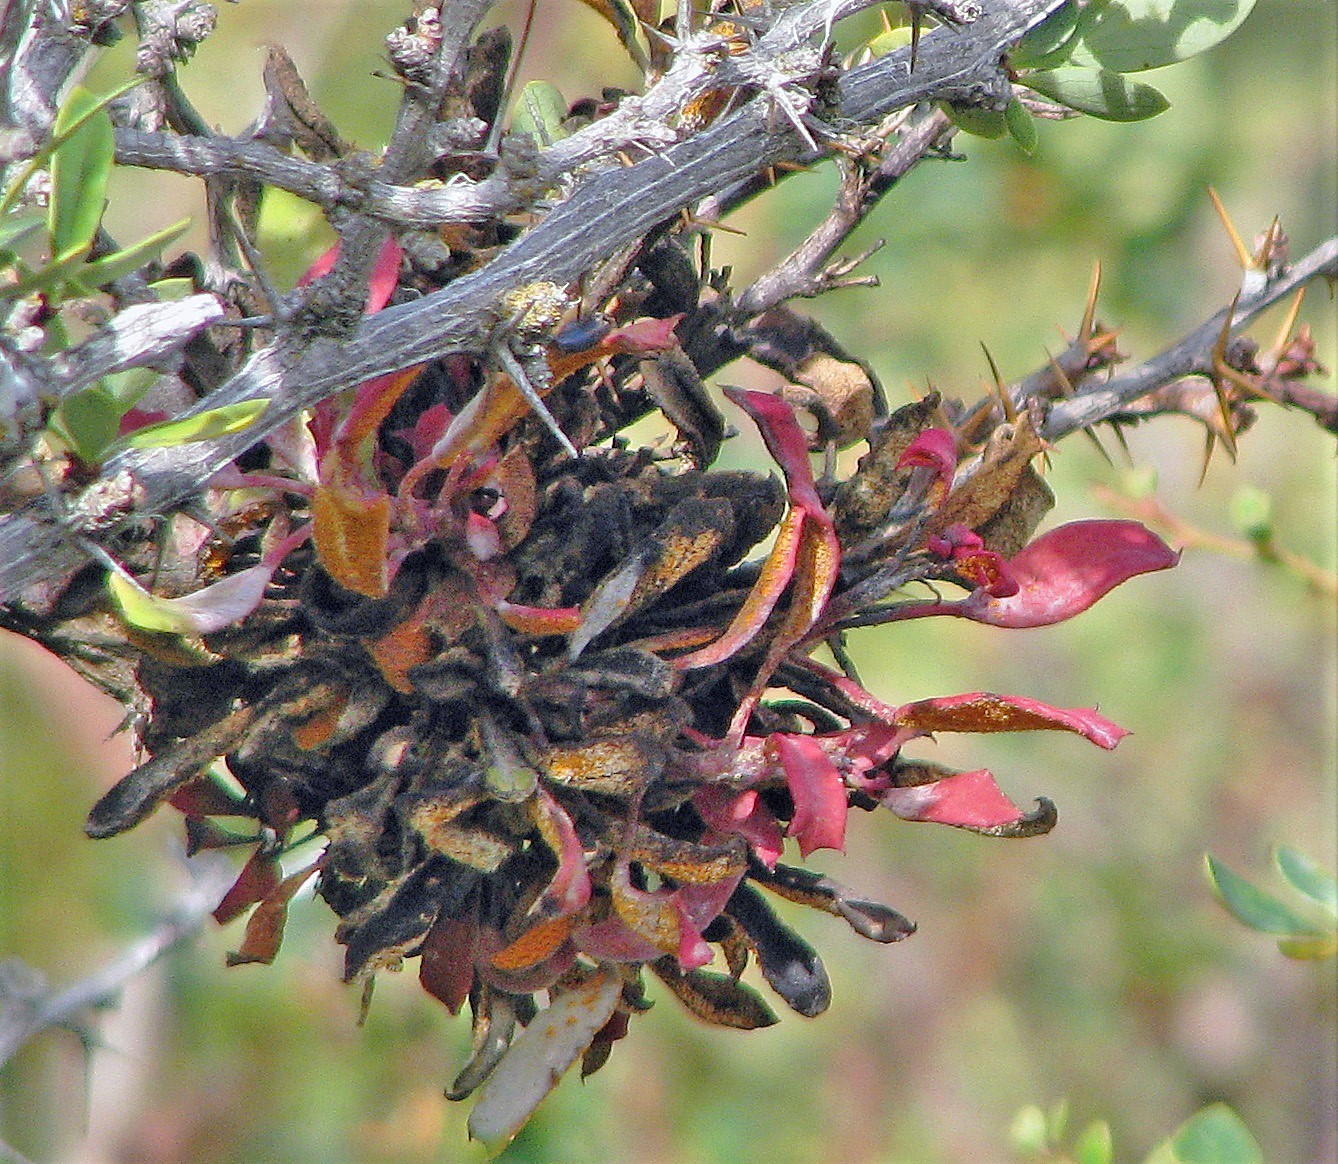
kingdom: Fungi
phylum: Basidiomycota
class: Pucciniomycetes
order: Pucciniales
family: Pucciniaceae
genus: Puccinia
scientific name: Puccinia magellanica
